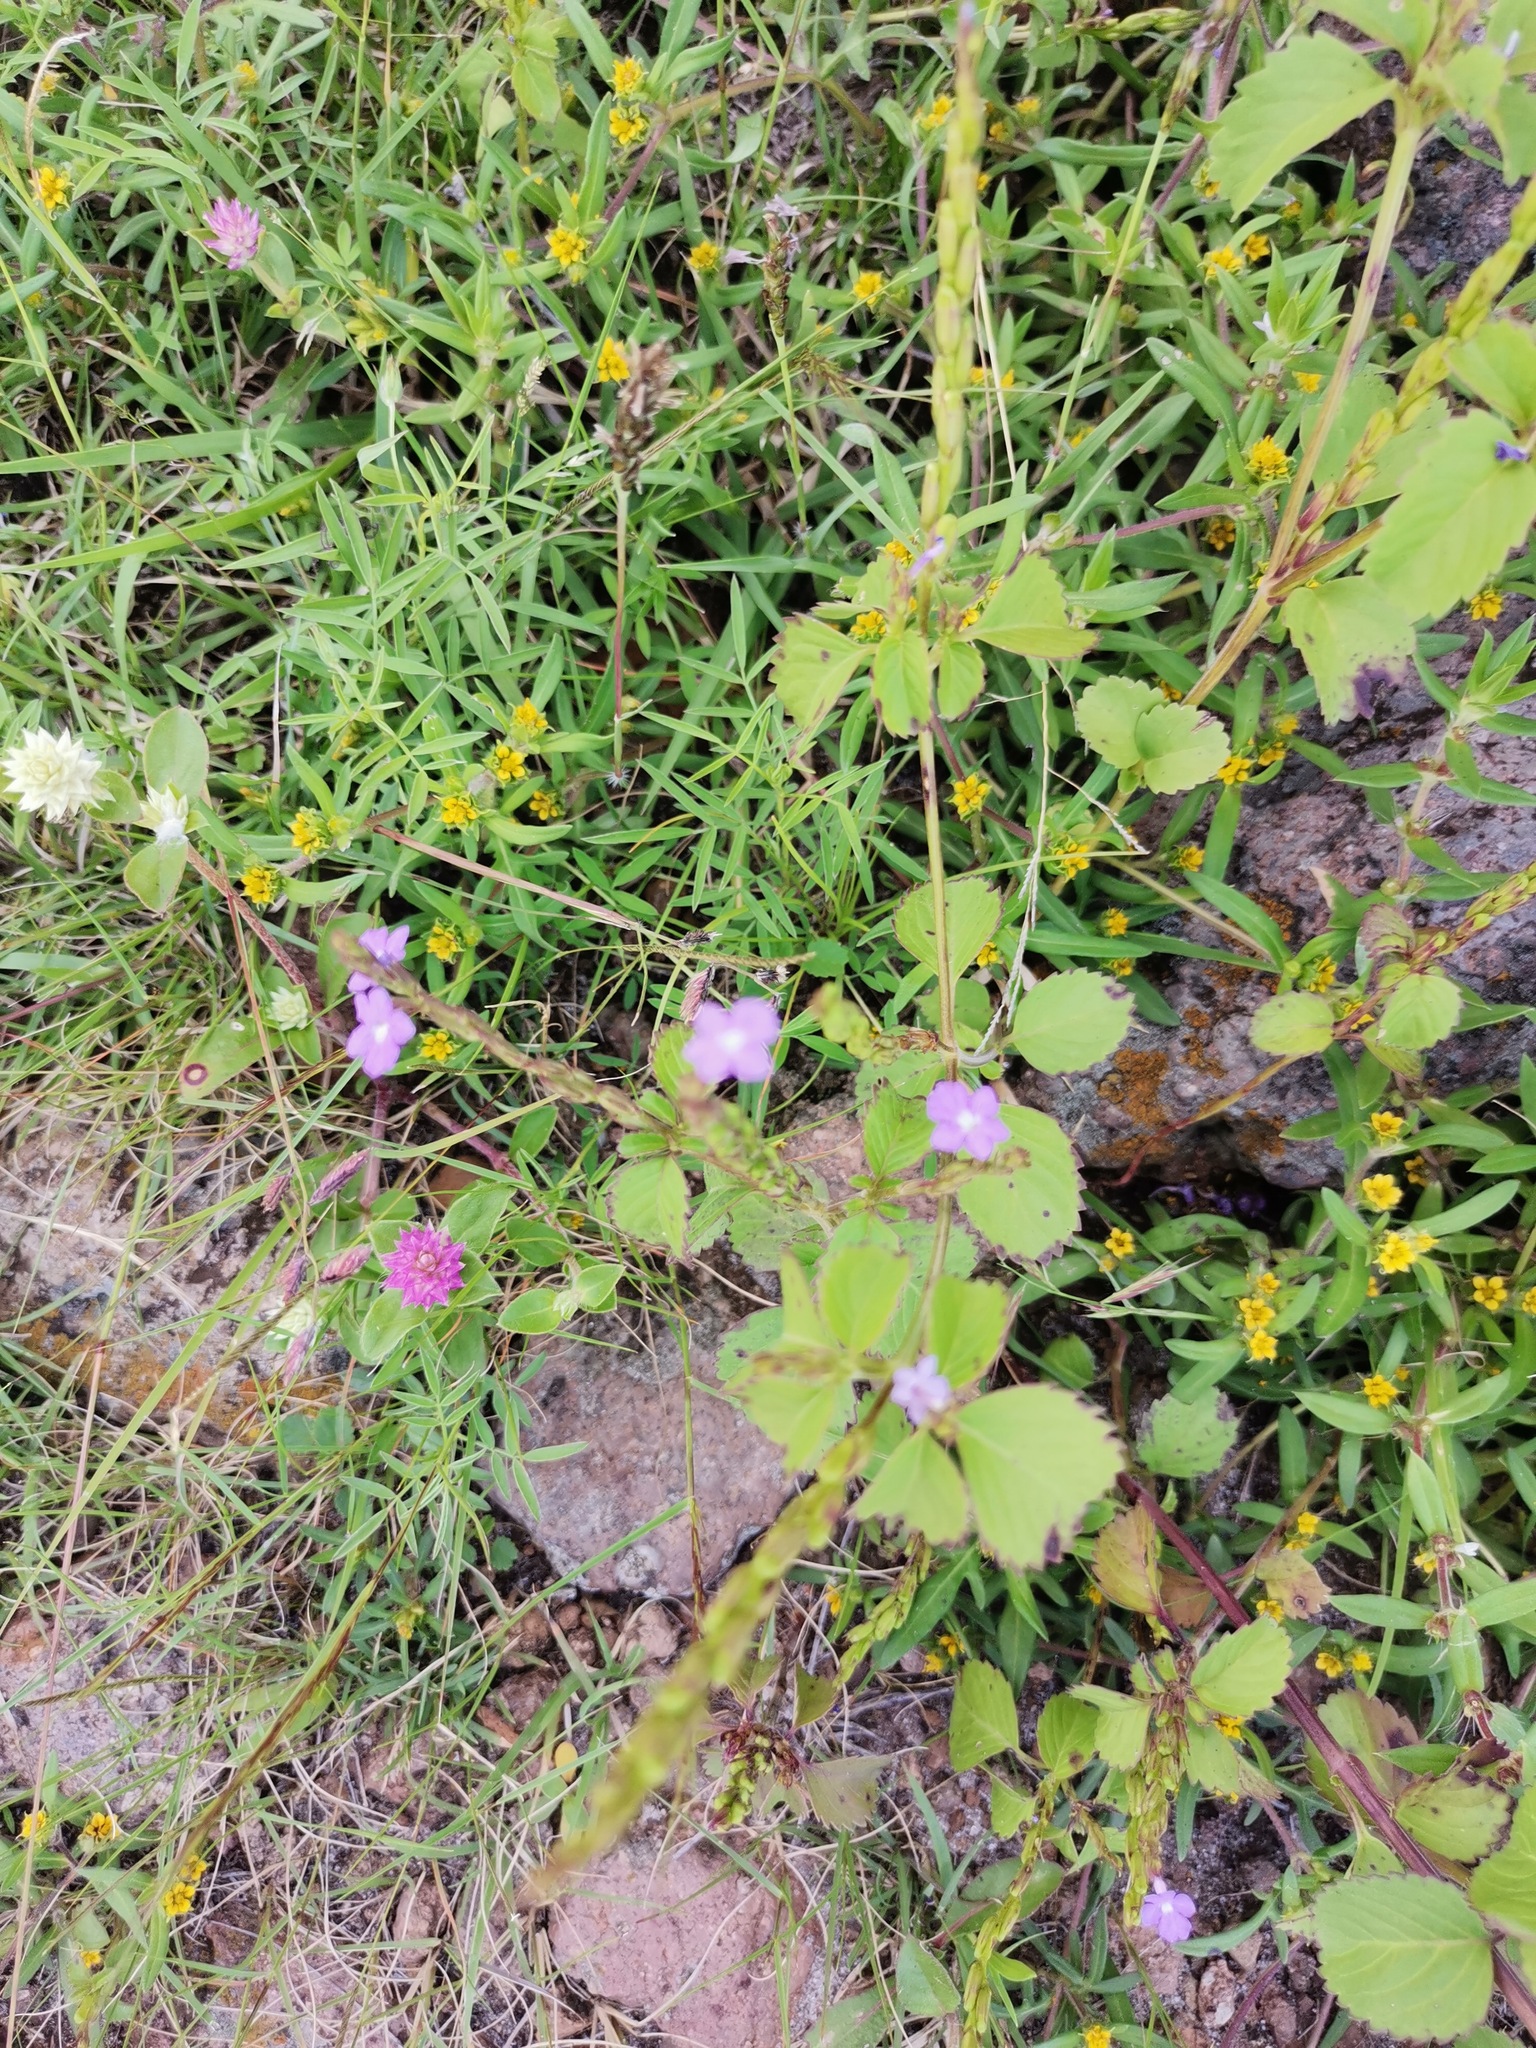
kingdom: Plantae
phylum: Tracheophyta
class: Magnoliopsida
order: Lamiales
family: Verbenaceae
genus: Bouchea
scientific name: Bouchea prismatica
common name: Vervine
